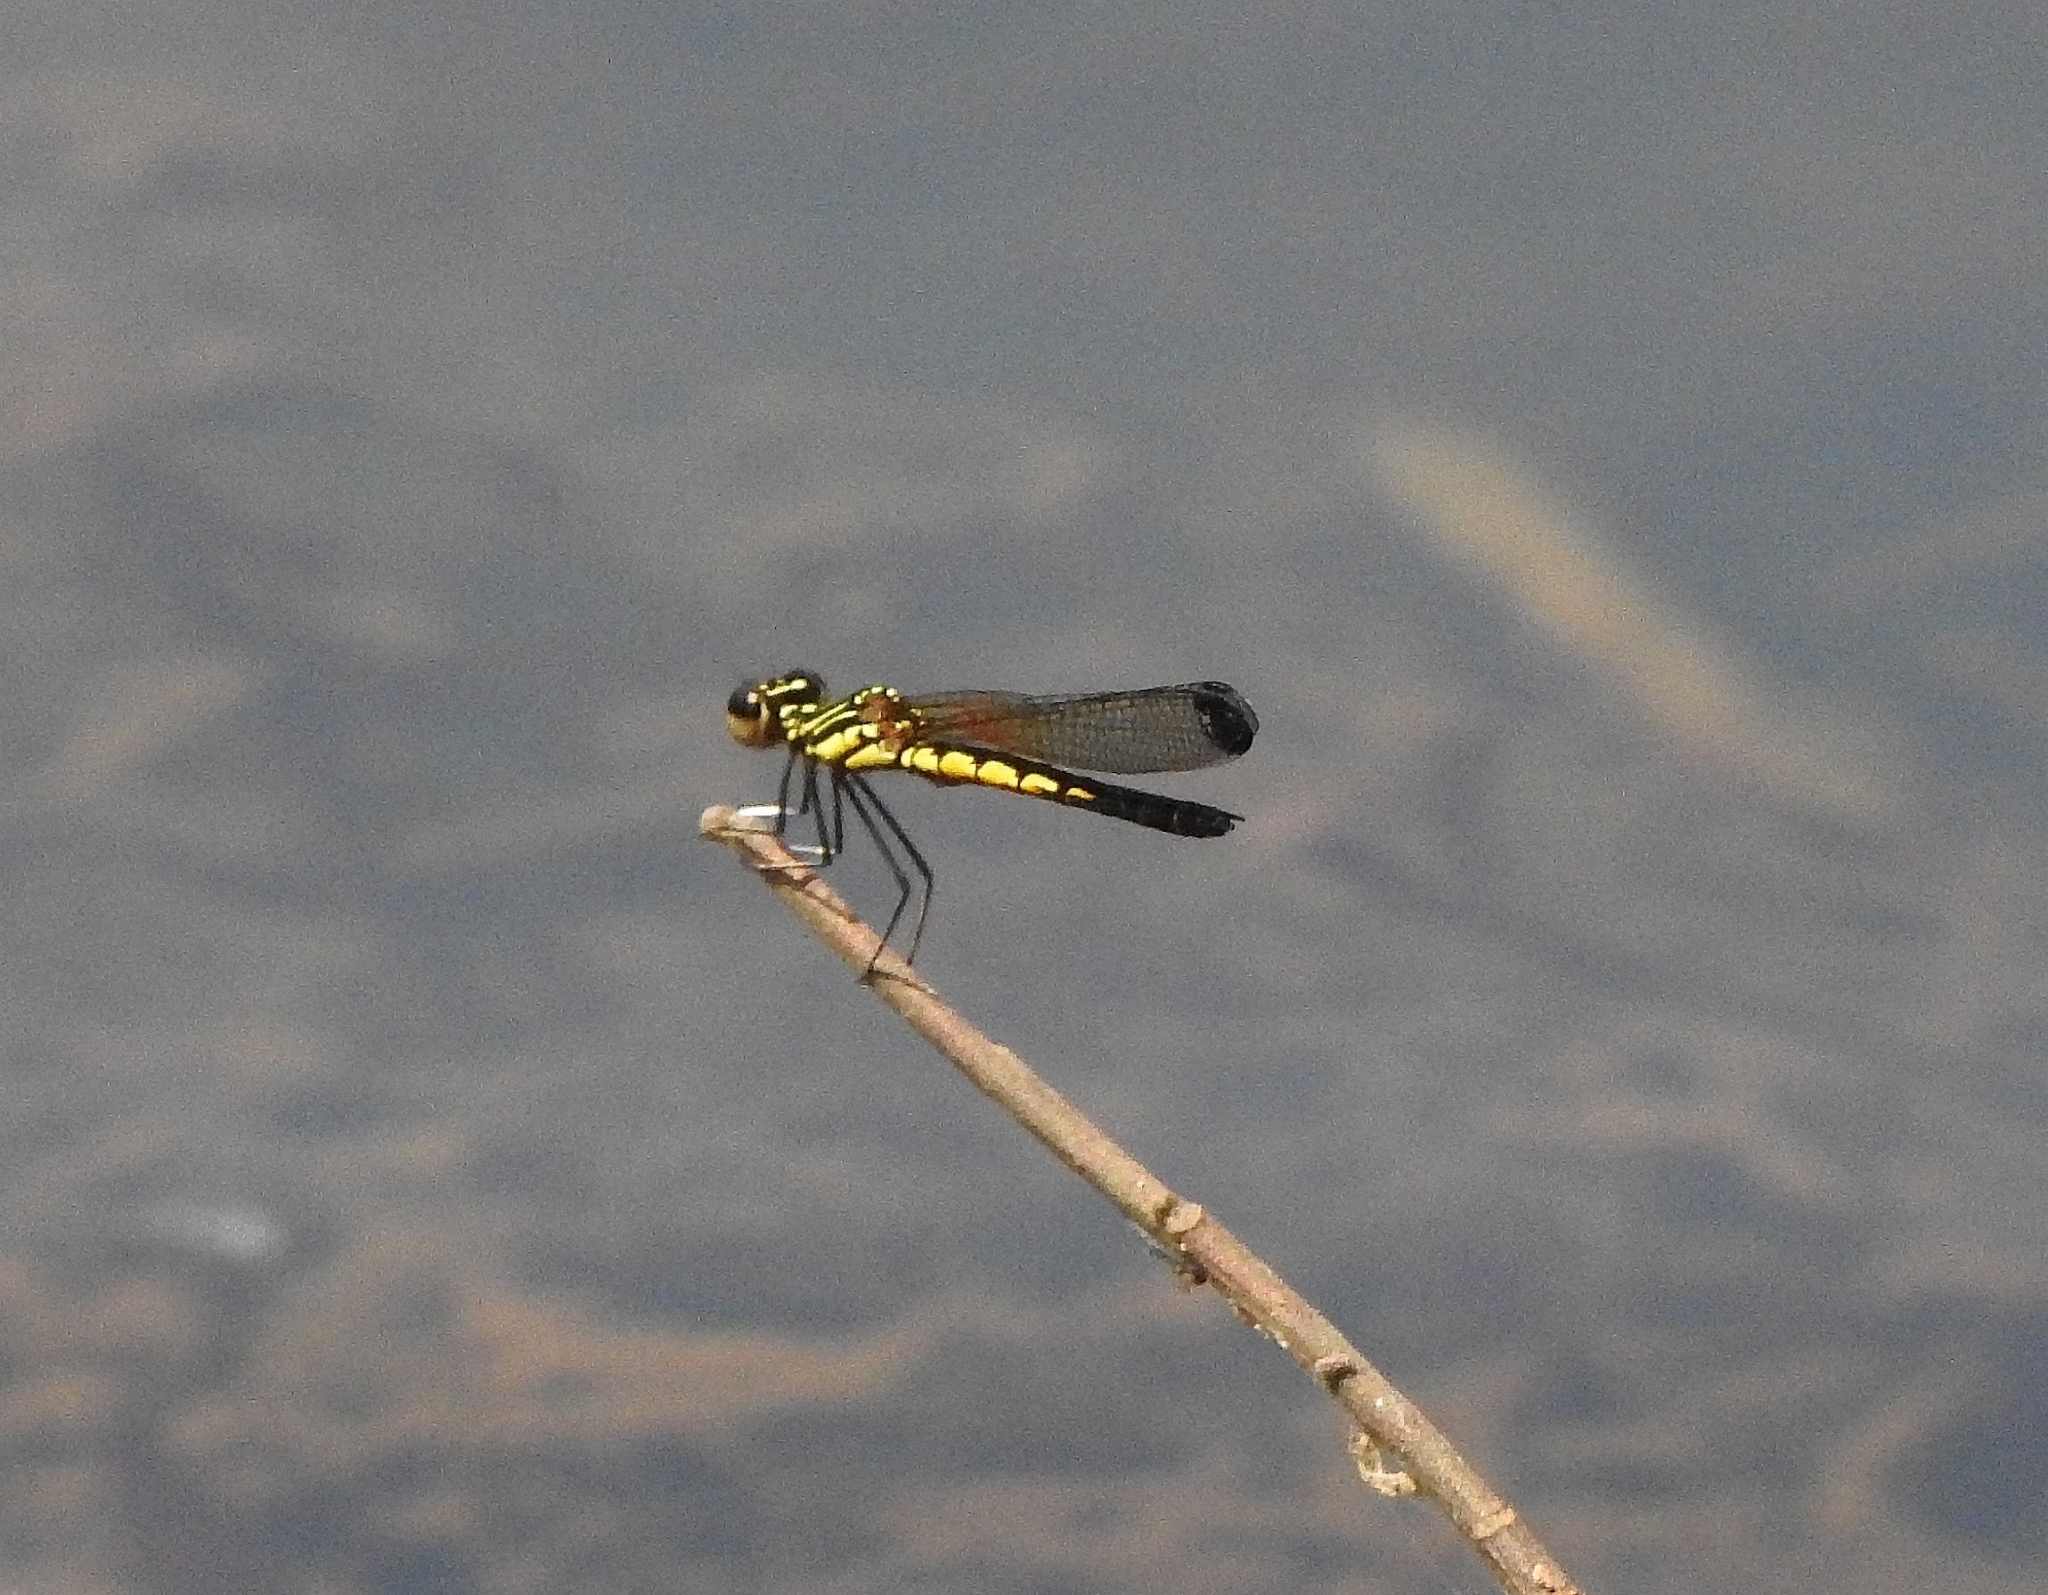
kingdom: Animalia
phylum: Arthropoda
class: Insecta
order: Odonata
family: Chlorocyphidae
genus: Libellago
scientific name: Libellago indica
